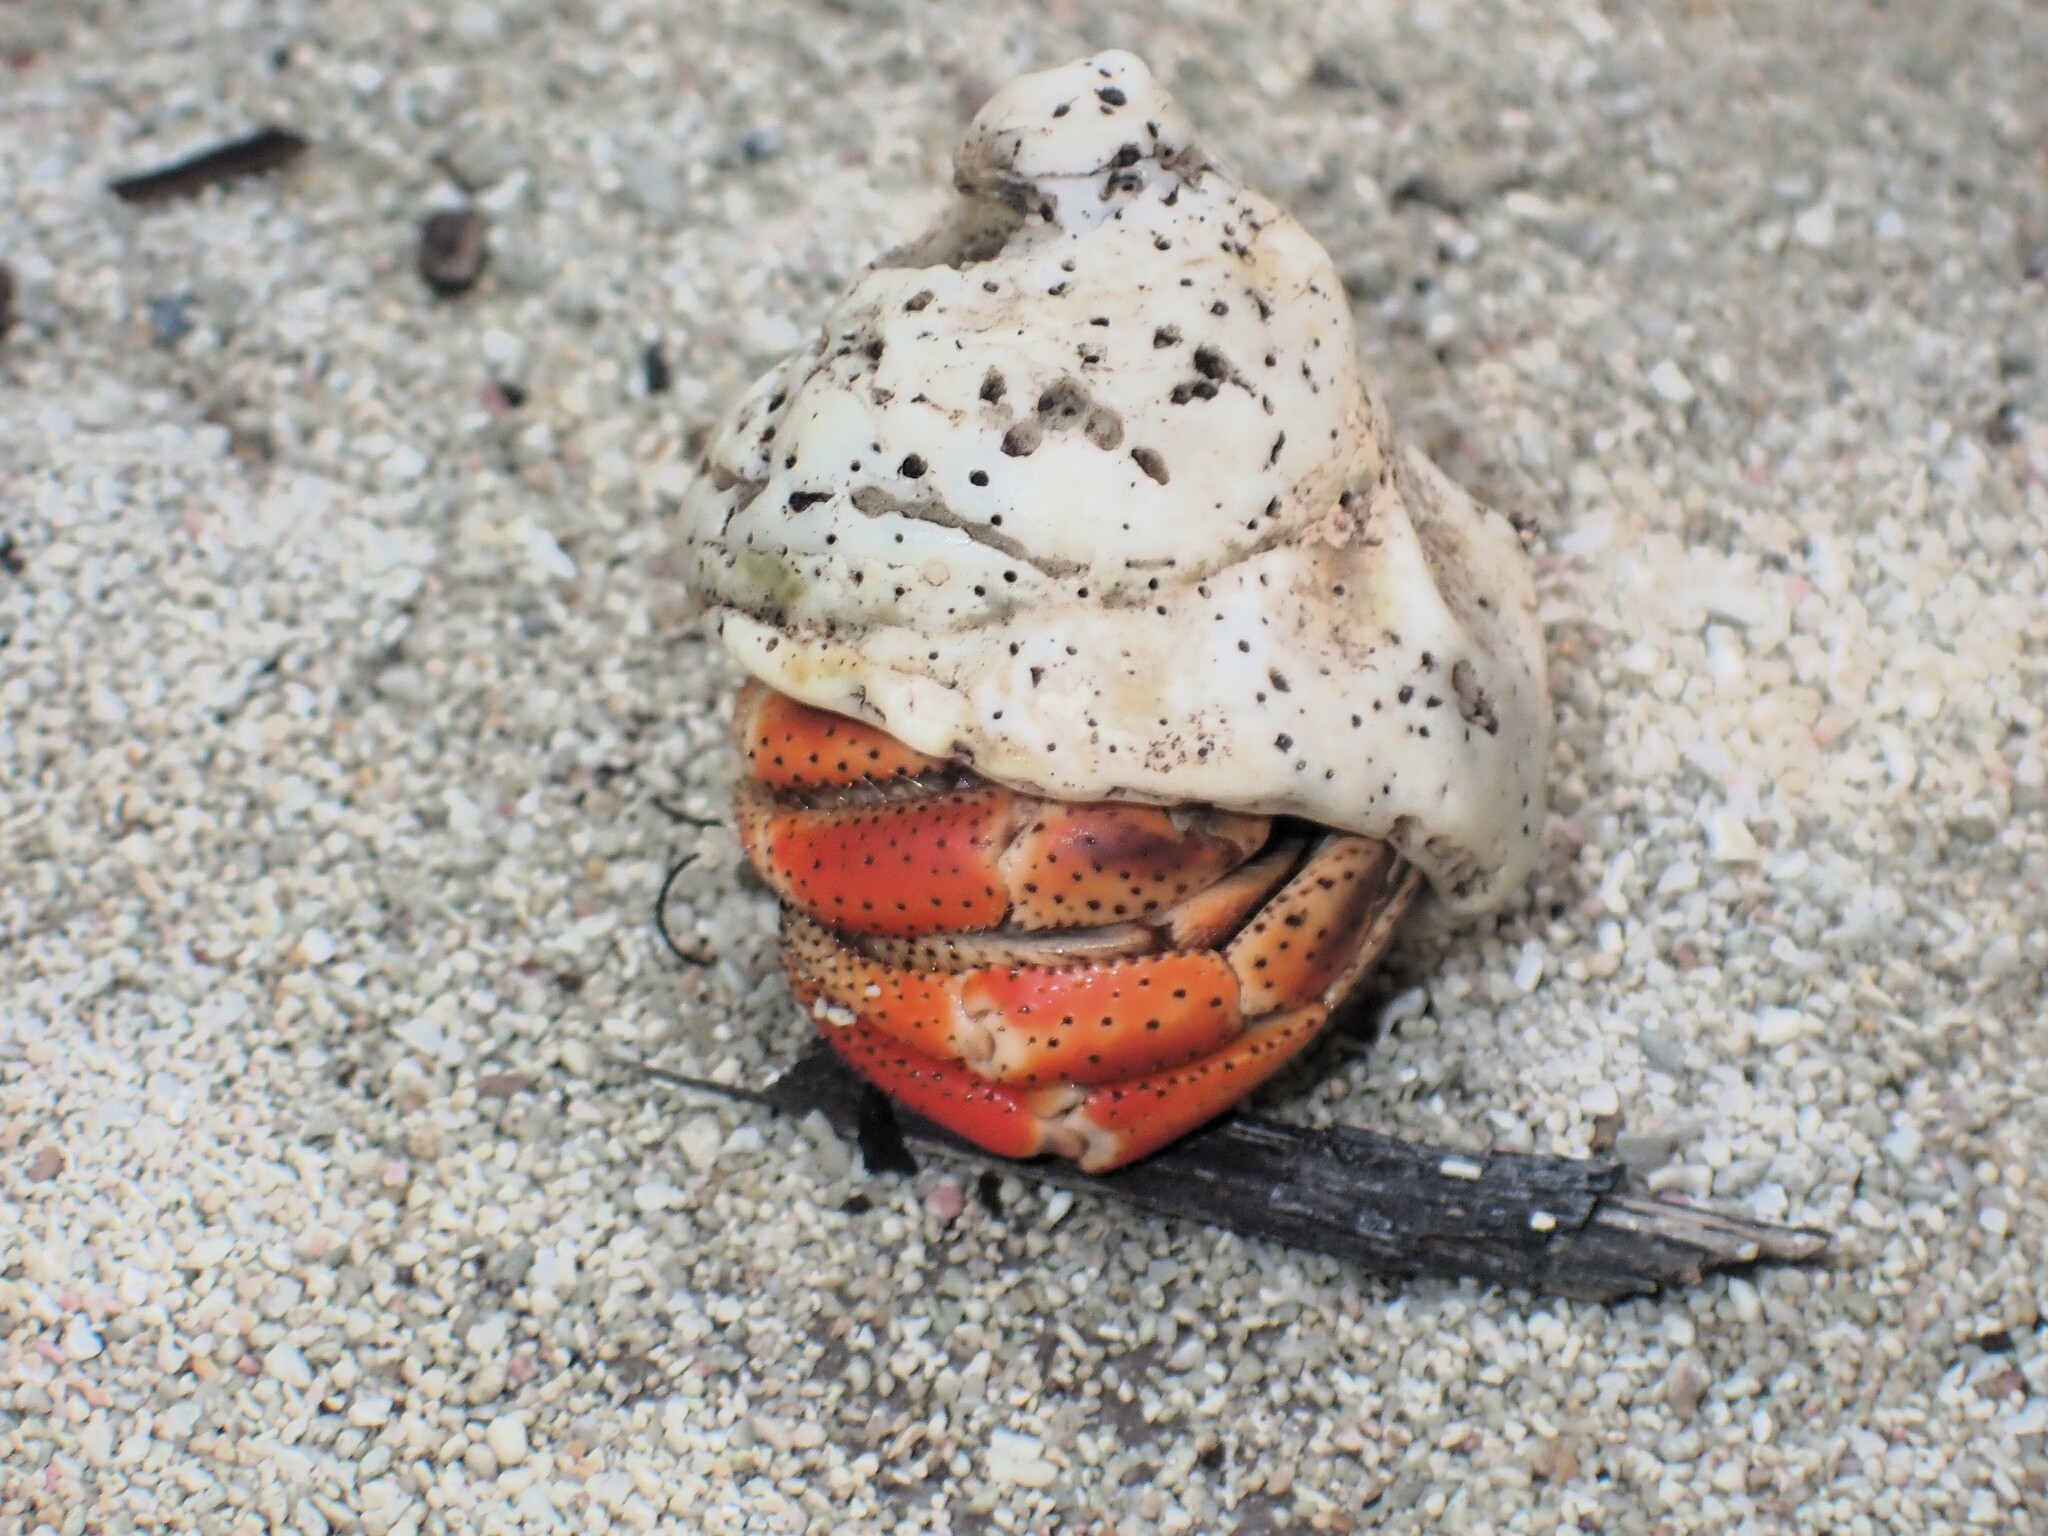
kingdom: Animalia
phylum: Arthropoda
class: Malacostraca
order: Decapoda
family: Coenobitidae
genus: Coenobita
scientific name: Coenobita clypeatus
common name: Caribbean hermit crab
